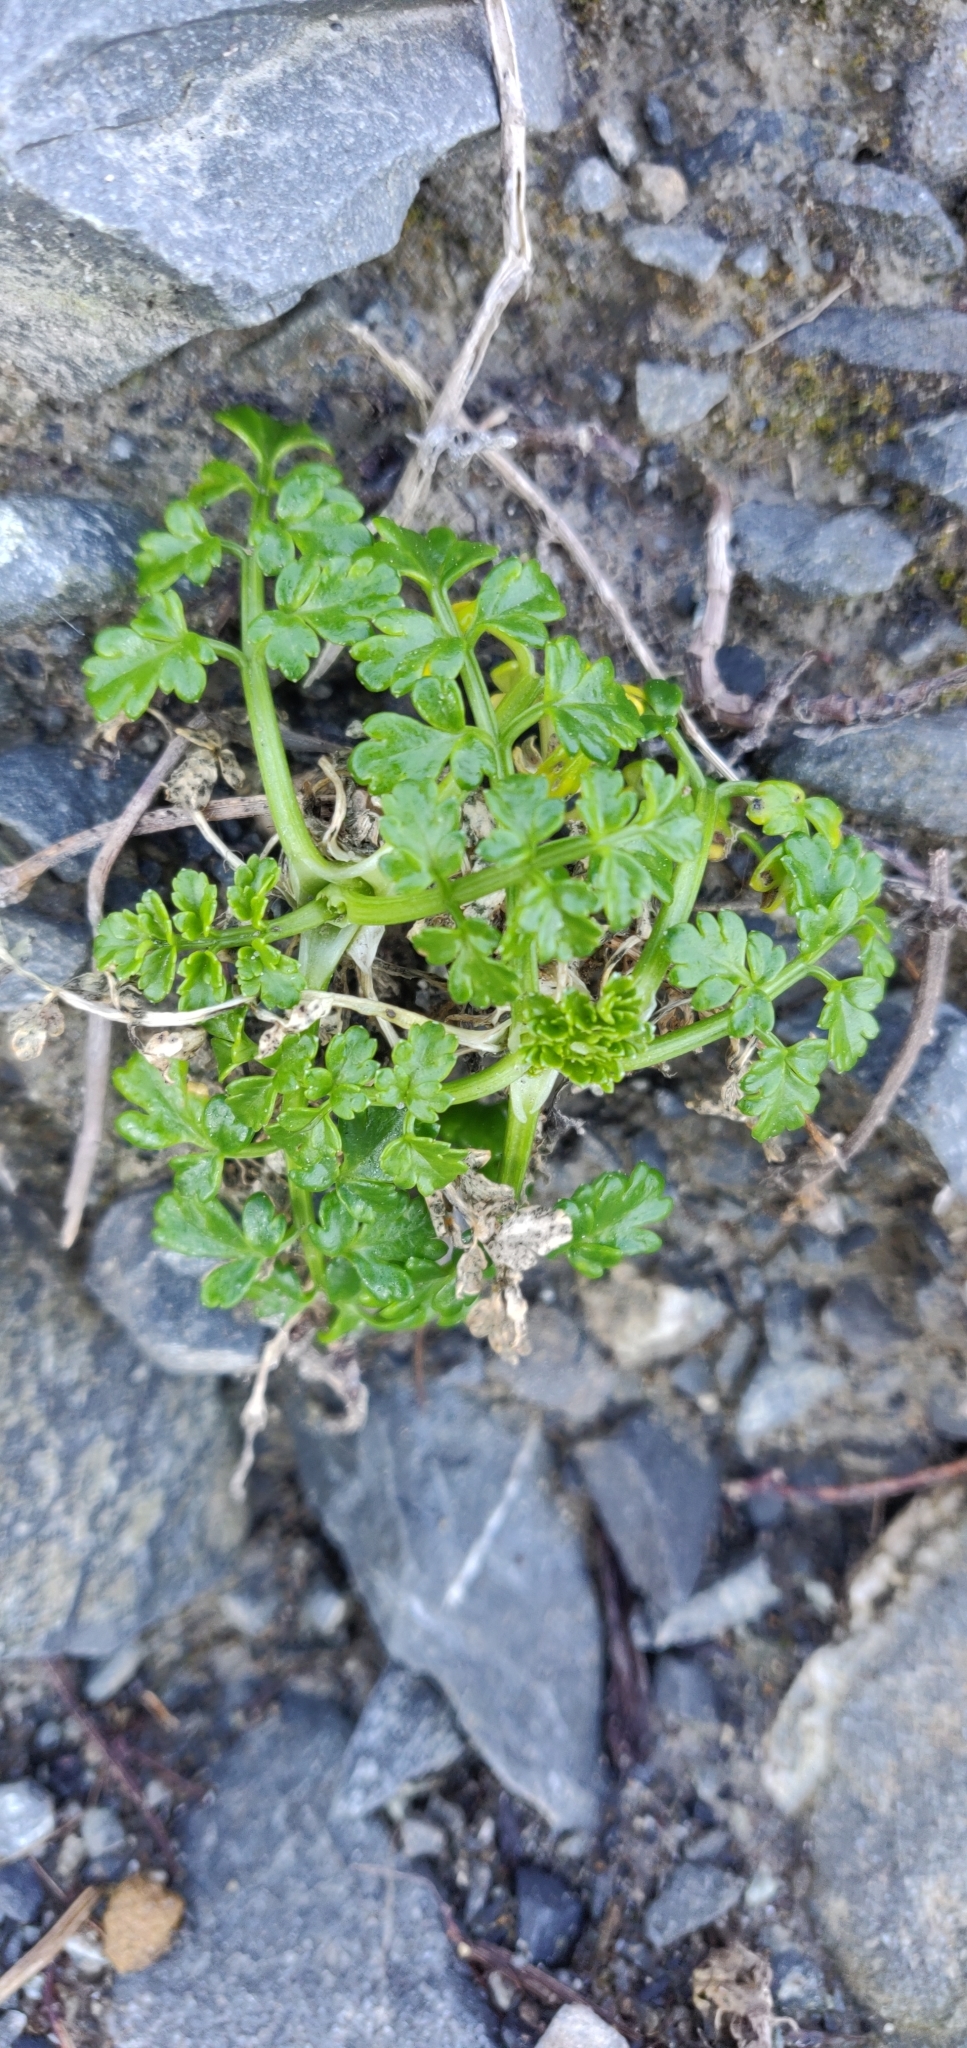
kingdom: Plantae
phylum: Tracheophyta
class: Magnoliopsida
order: Apiales
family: Apiaceae
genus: Apium
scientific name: Apium prostratum
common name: Prostrate marshwort
